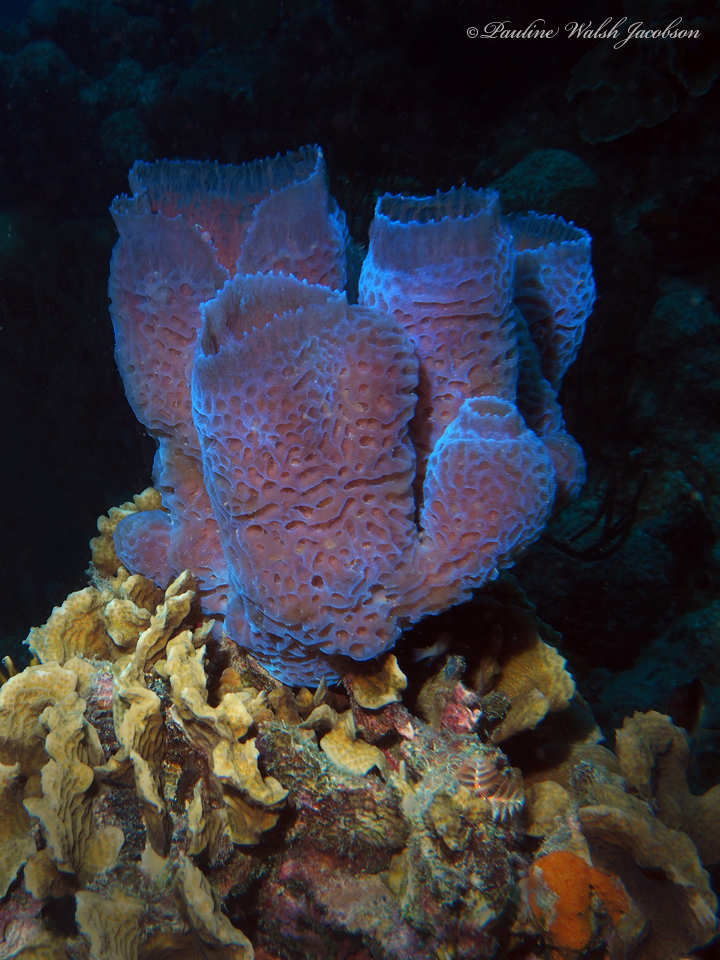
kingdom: Animalia
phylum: Porifera
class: Demospongiae
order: Haplosclerida
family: Callyspongiidae
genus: Callyspongia
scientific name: Callyspongia plicifera
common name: Azure vase sponge
